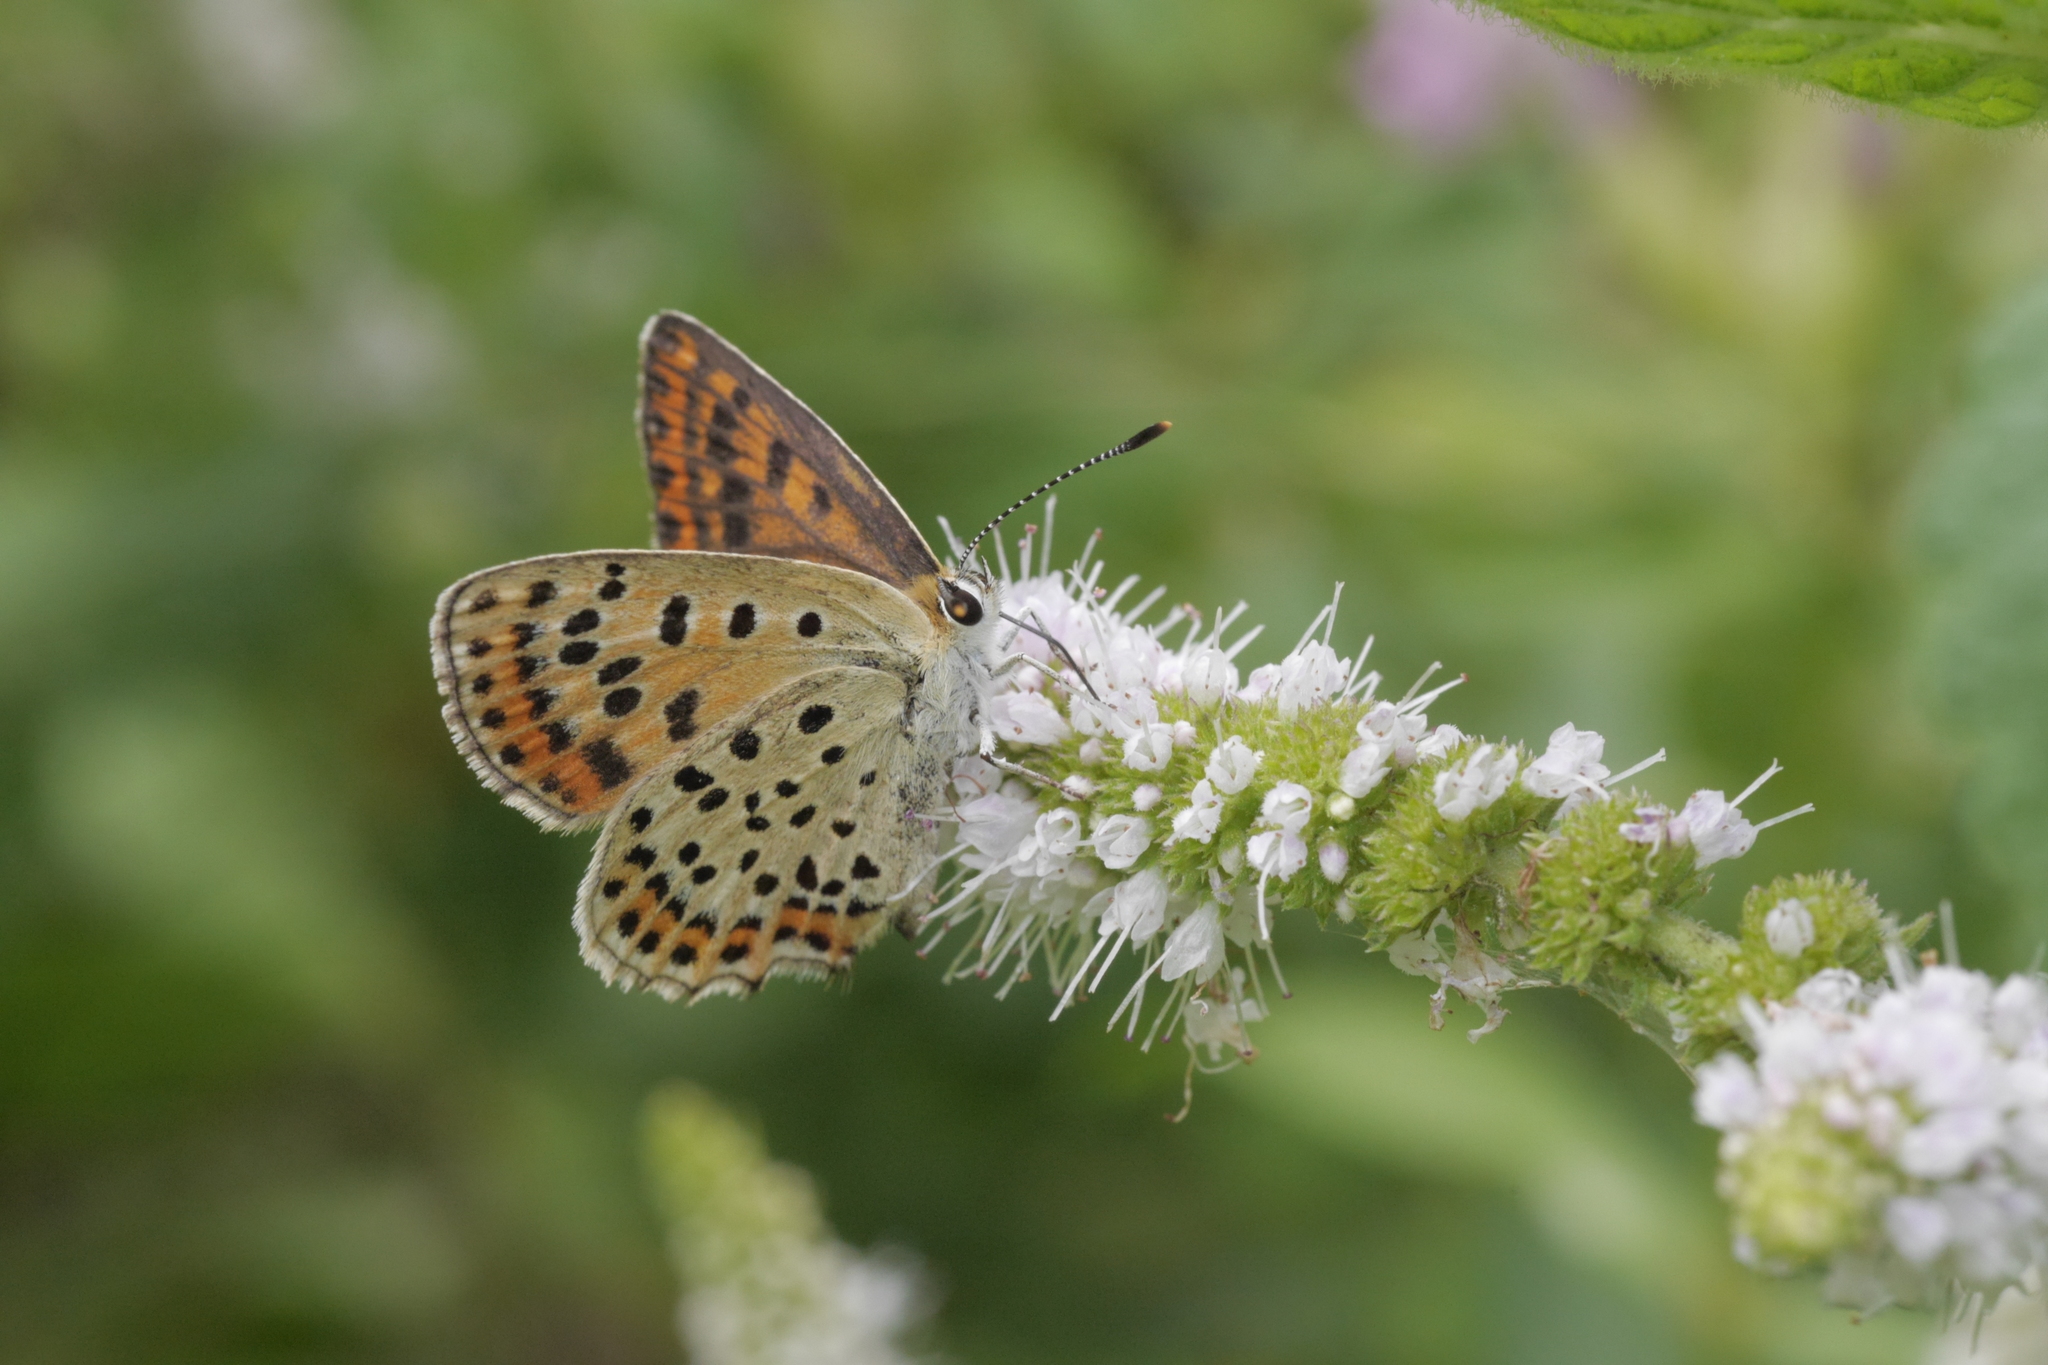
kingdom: Animalia
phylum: Arthropoda
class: Insecta
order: Lepidoptera
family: Lycaenidae
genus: Loweia
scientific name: Loweia tityrus
